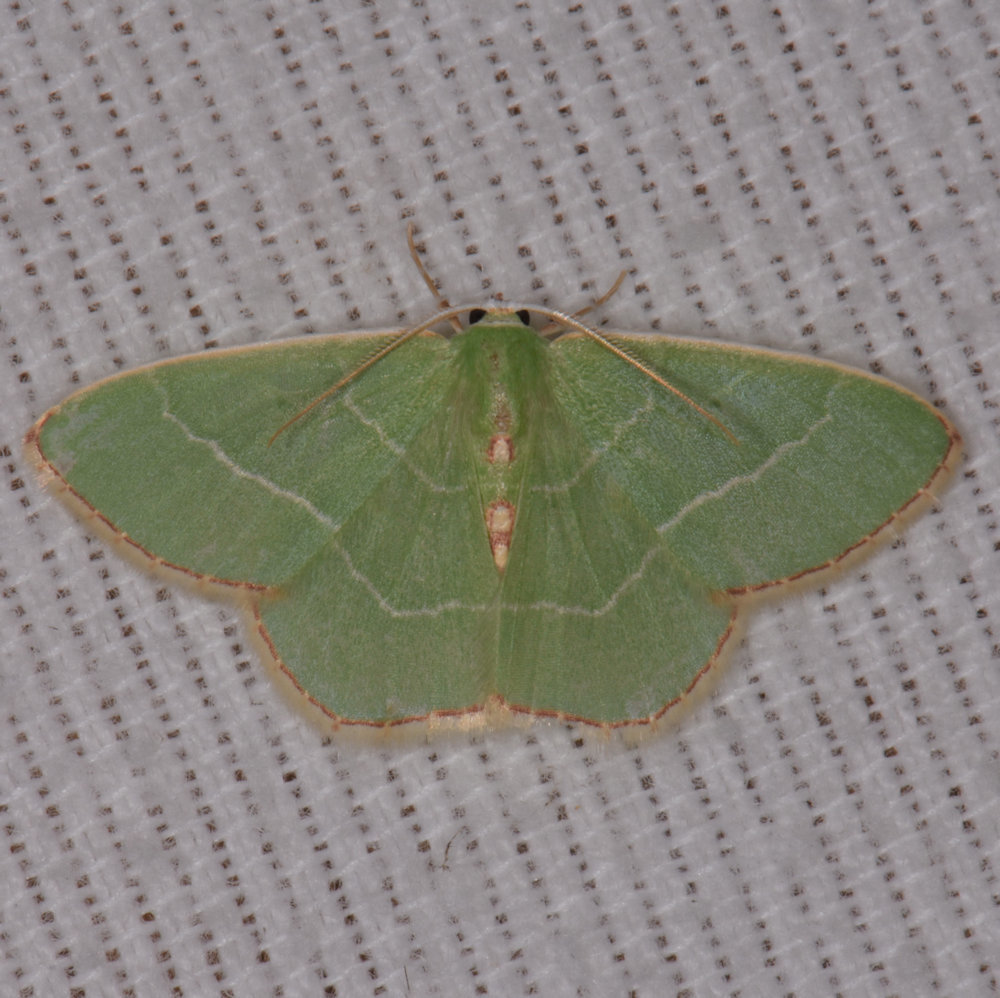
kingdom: Animalia
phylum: Arthropoda
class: Insecta
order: Lepidoptera
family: Geometridae
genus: Nemoria
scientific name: Nemoria bistriaria
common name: Red-fringed emerald
